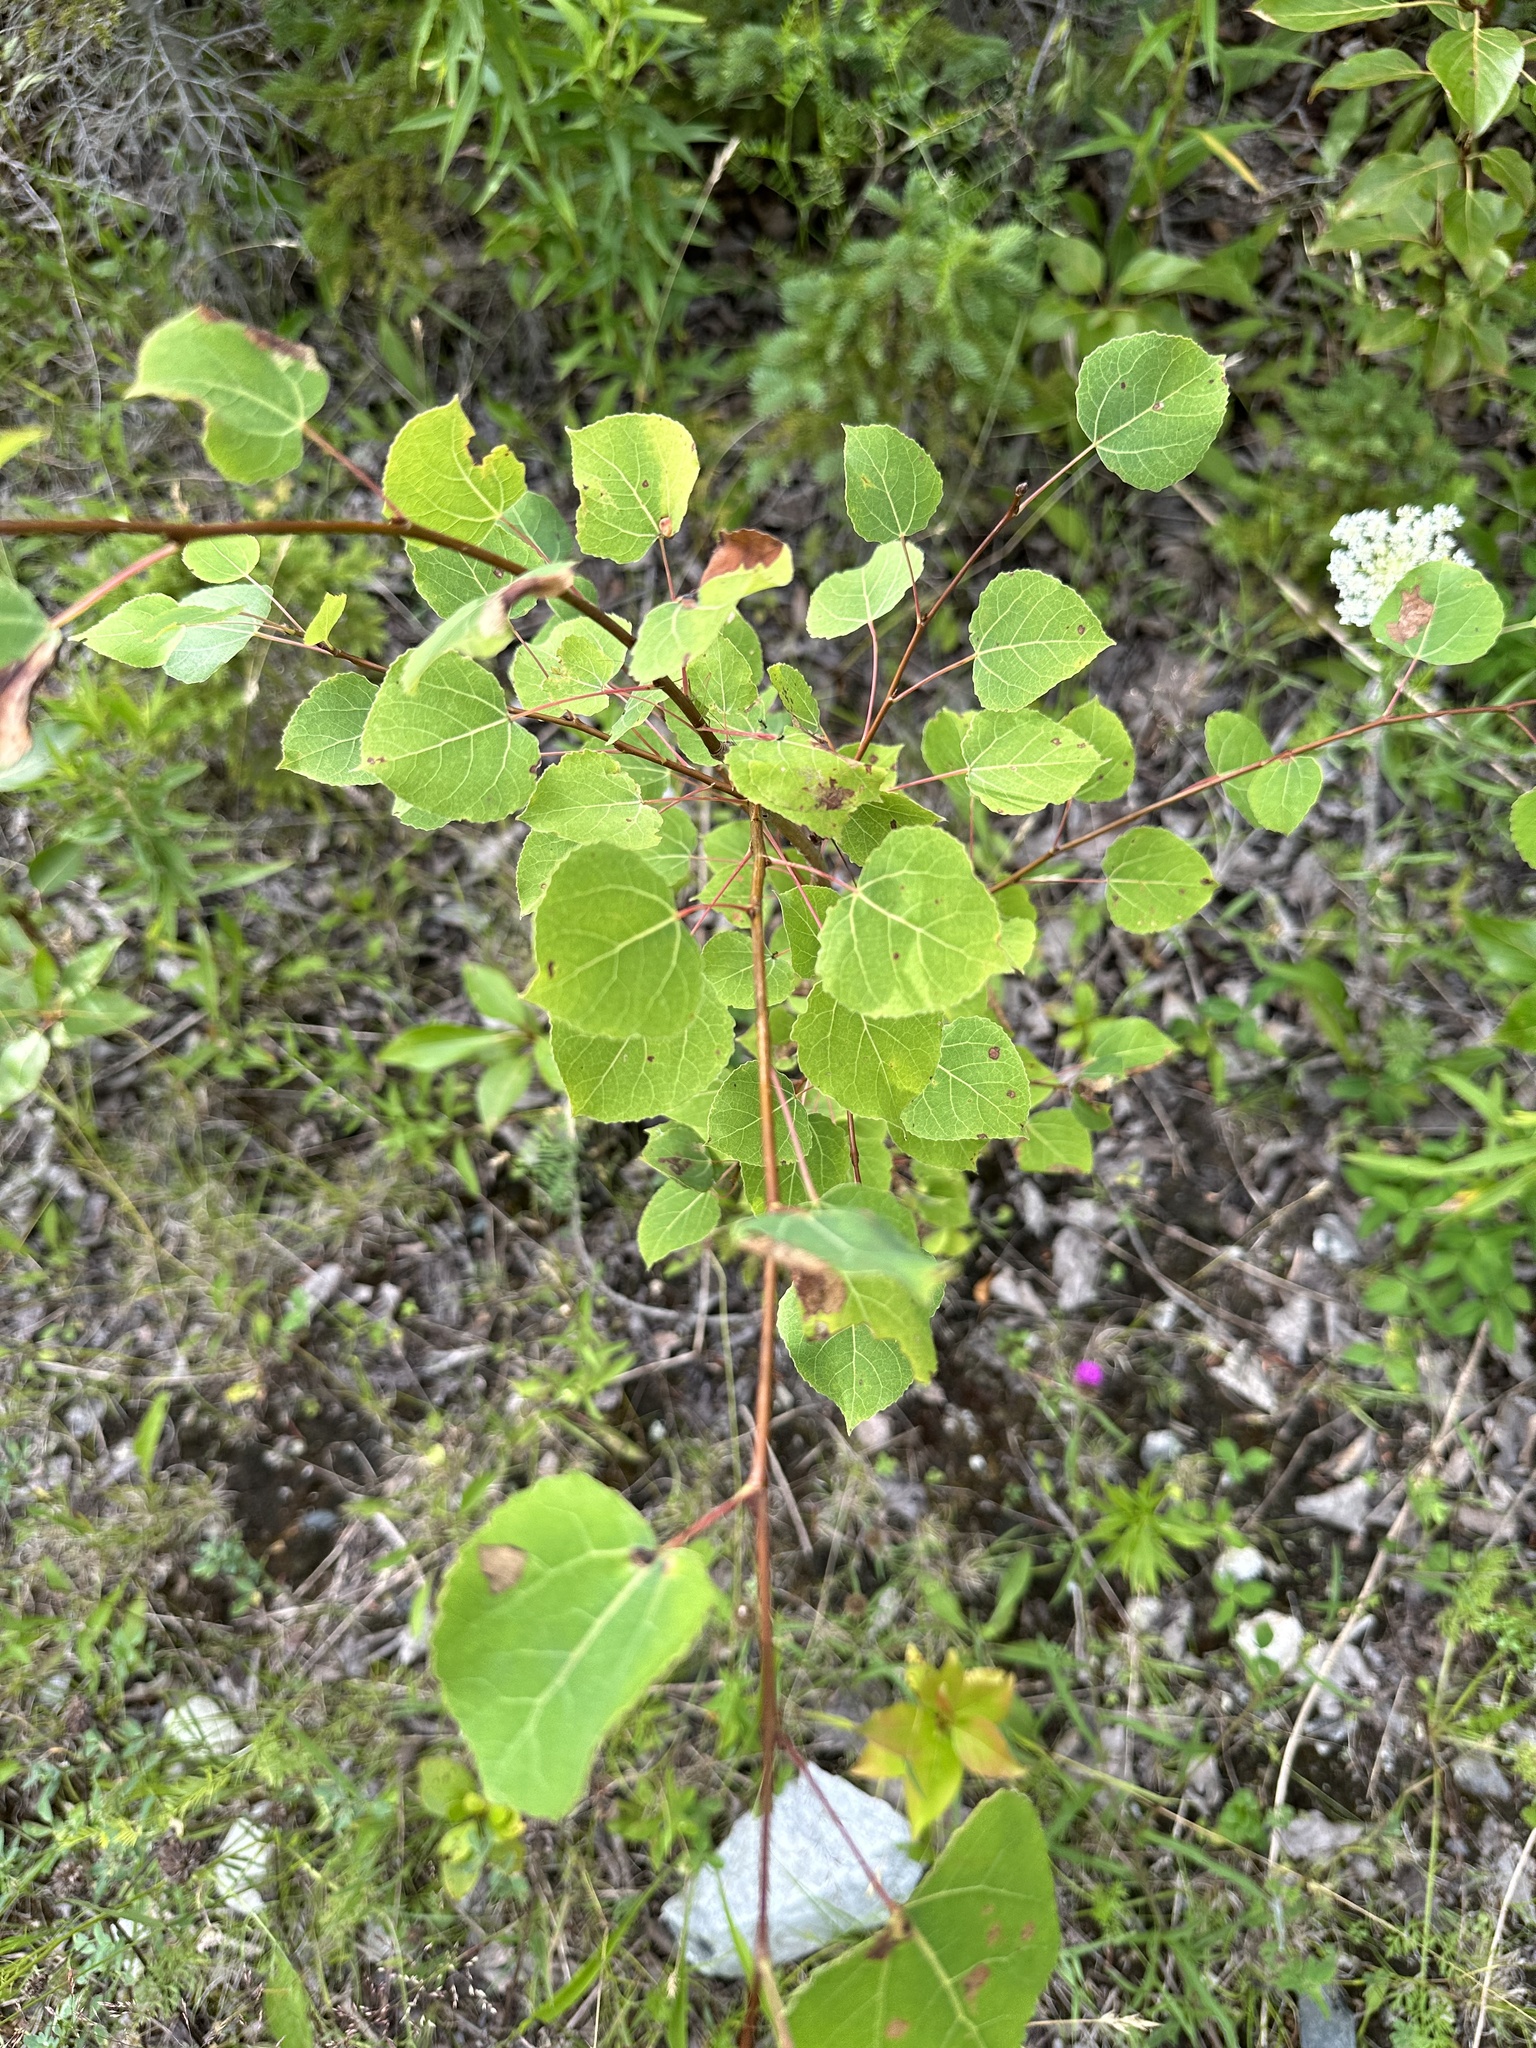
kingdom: Plantae
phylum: Tracheophyta
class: Magnoliopsida
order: Malpighiales
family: Salicaceae
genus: Populus
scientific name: Populus tremuloides
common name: Quaking aspen
